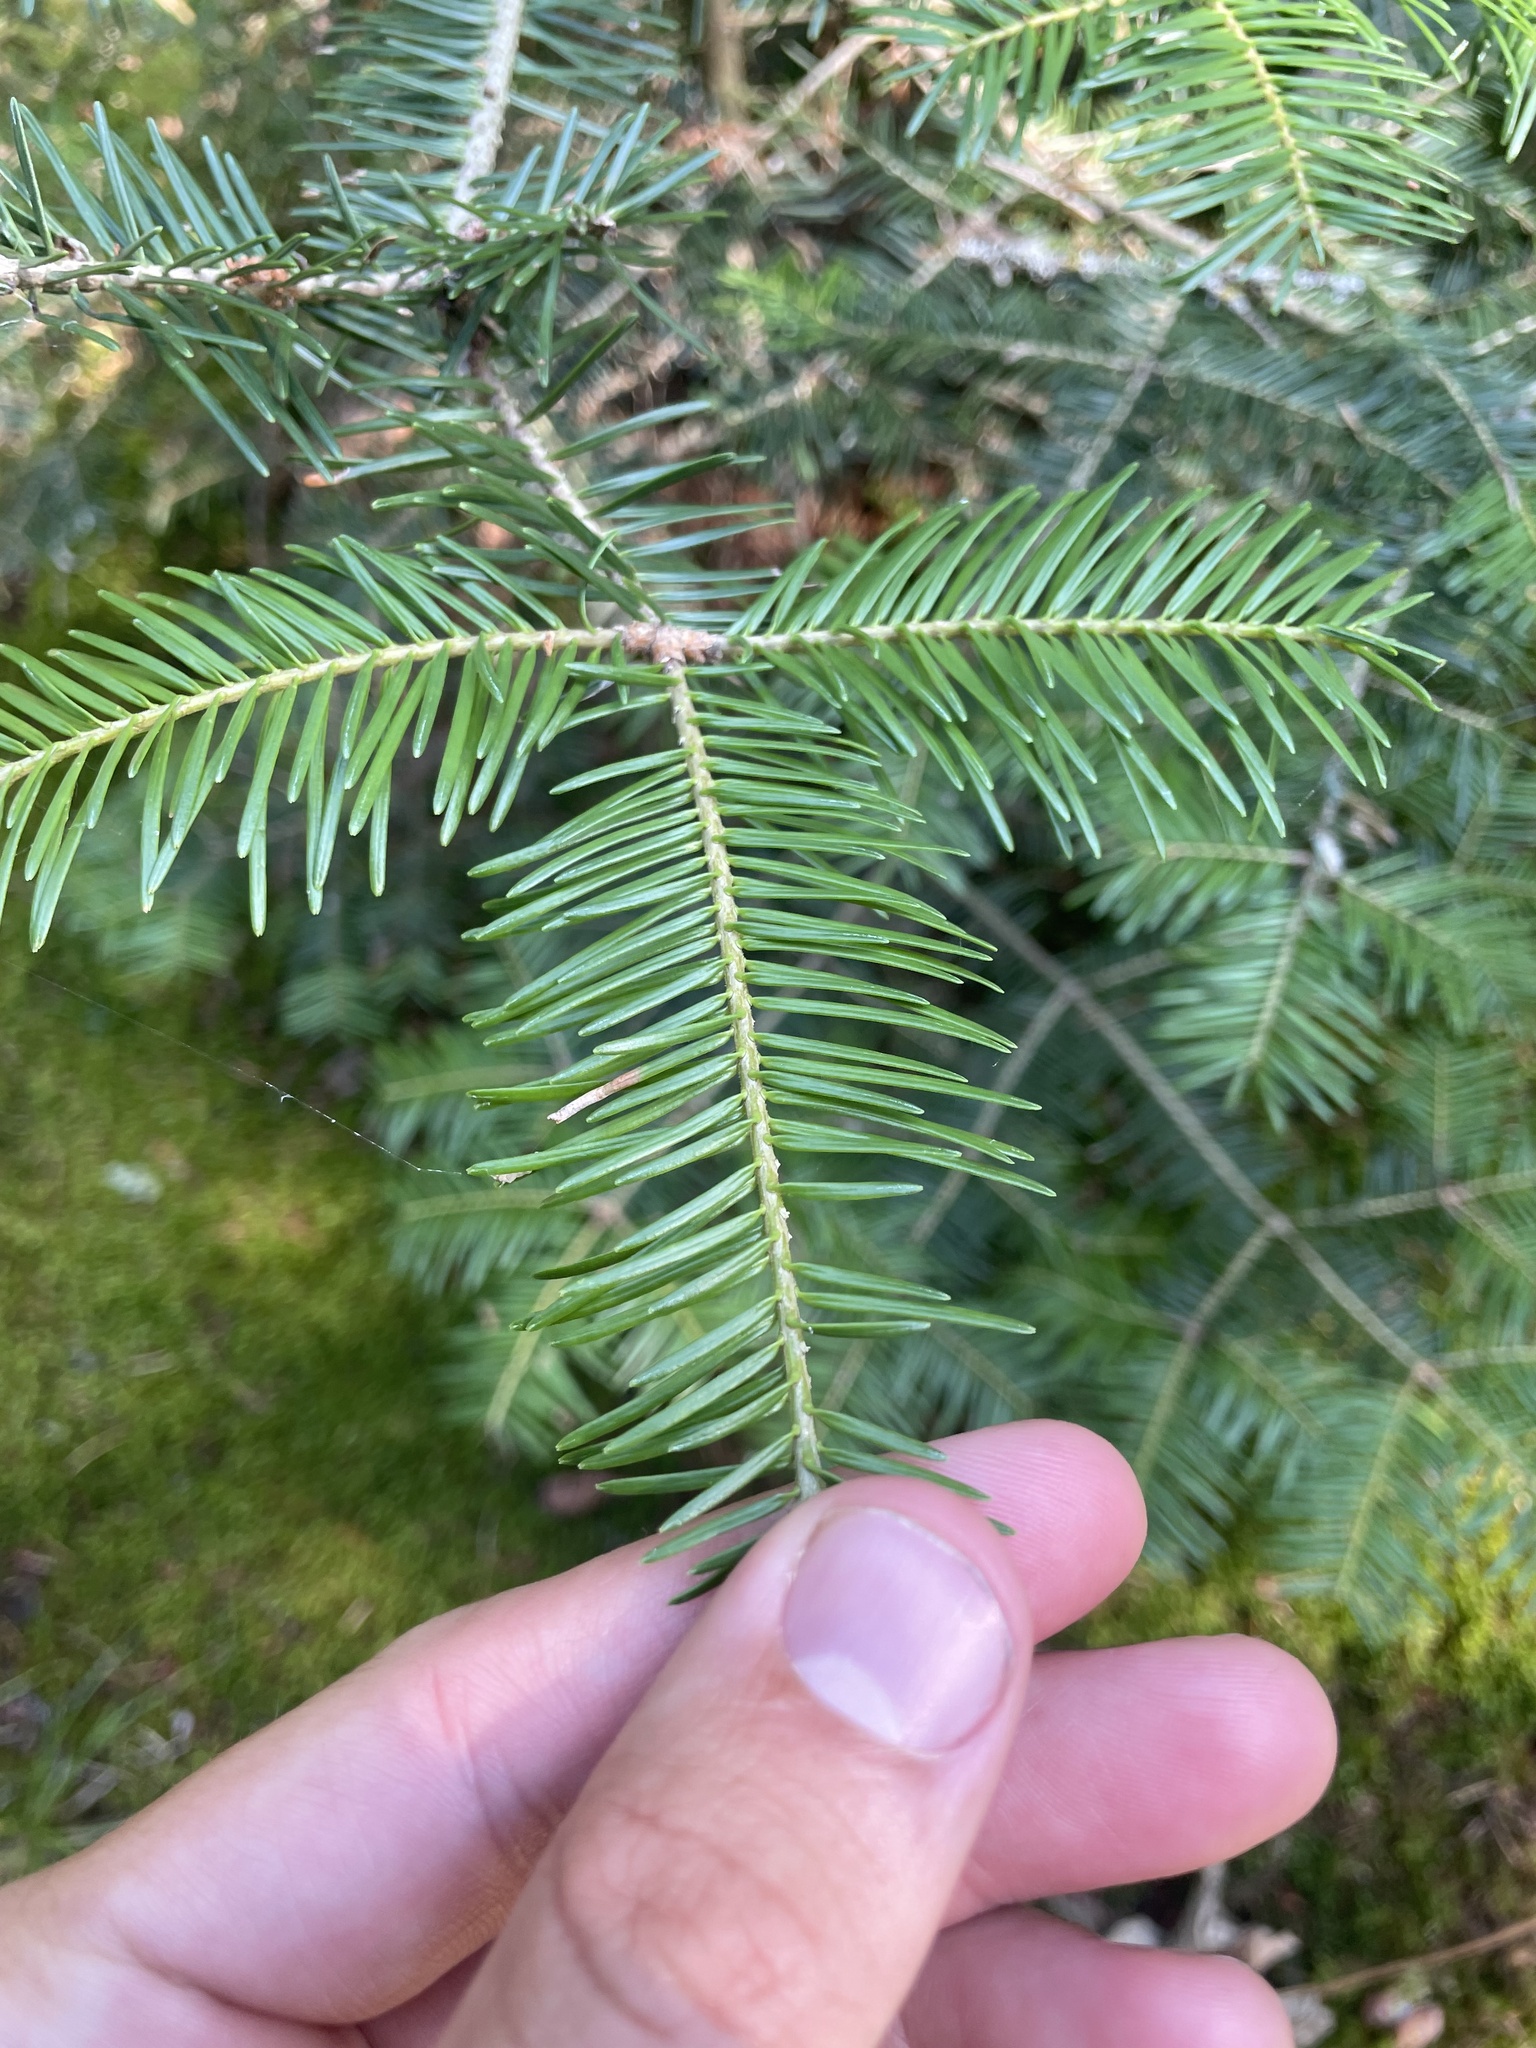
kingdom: Plantae
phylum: Tracheophyta
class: Pinopsida
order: Pinales
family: Pinaceae
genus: Abies
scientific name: Abies balsamea
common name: Balsam fir
